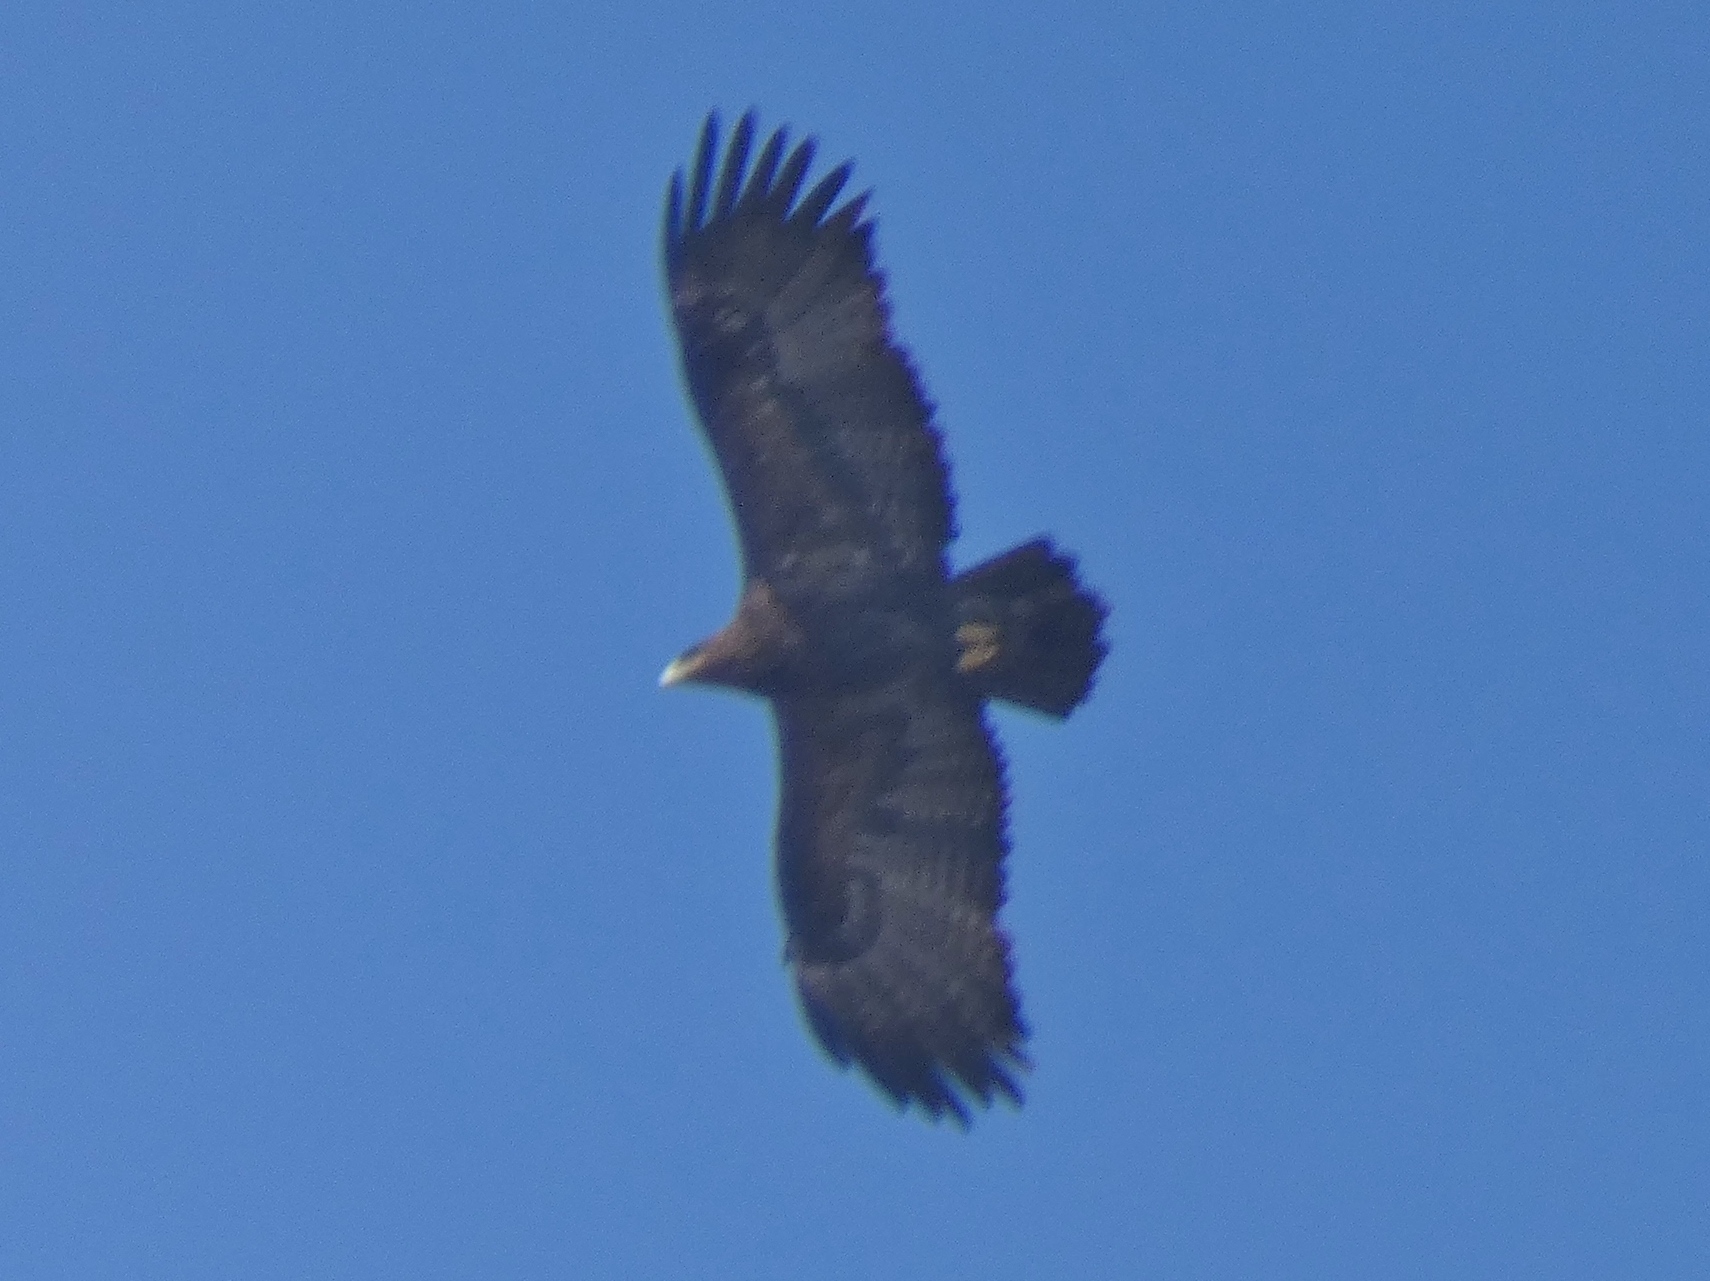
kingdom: Animalia
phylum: Chordata
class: Aves
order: Accipitriformes
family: Accipitridae
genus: Aquila
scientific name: Aquila nipalensis
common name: Steppe eagle
